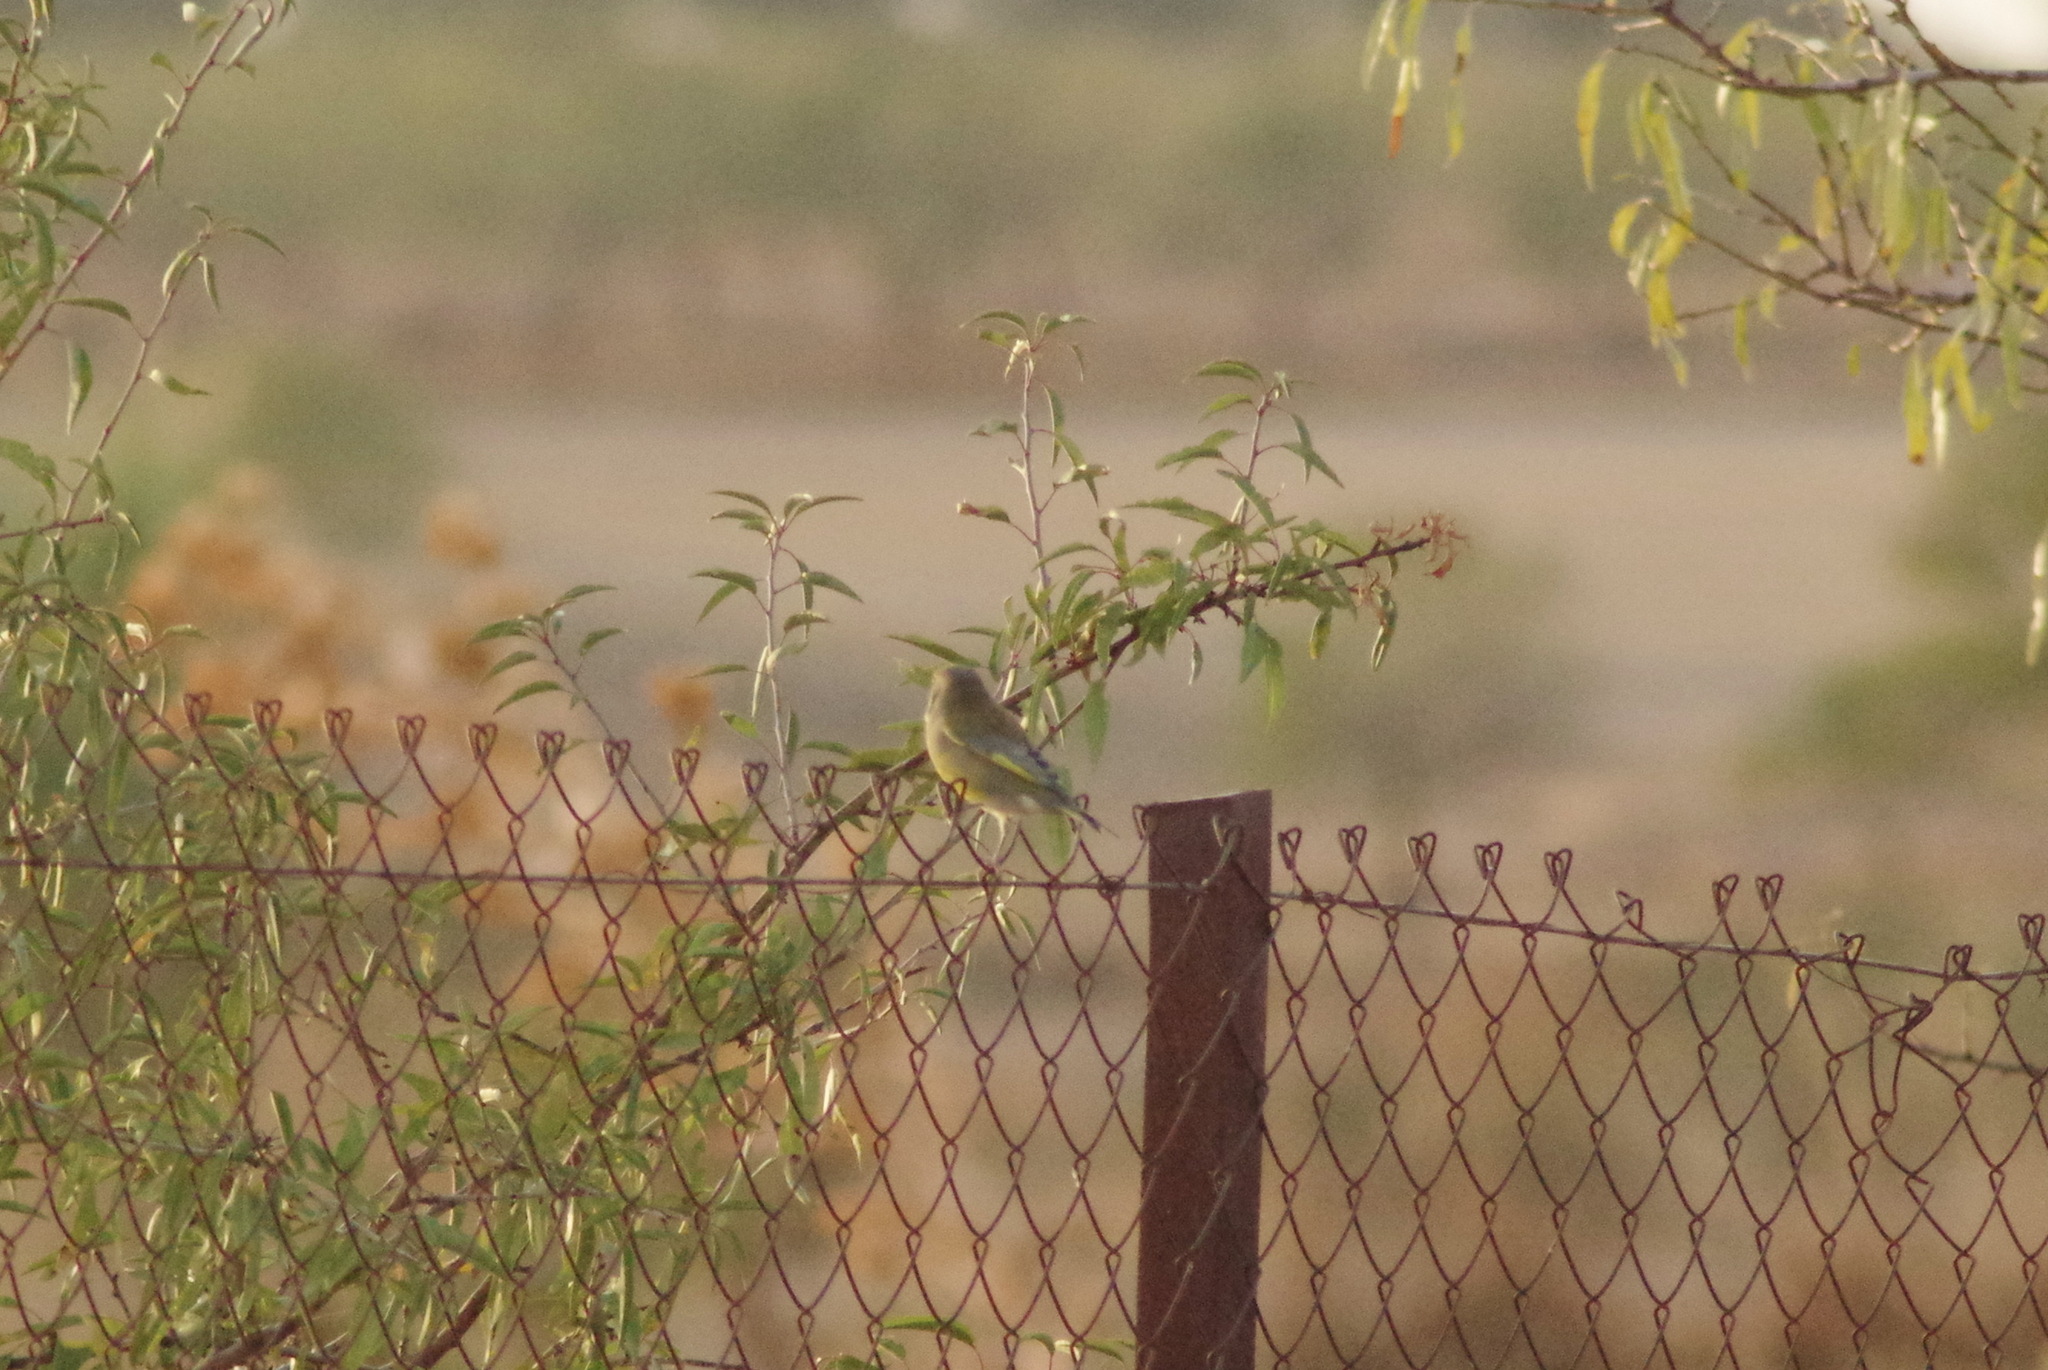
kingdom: Plantae
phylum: Tracheophyta
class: Liliopsida
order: Poales
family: Poaceae
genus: Chloris
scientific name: Chloris chloris
